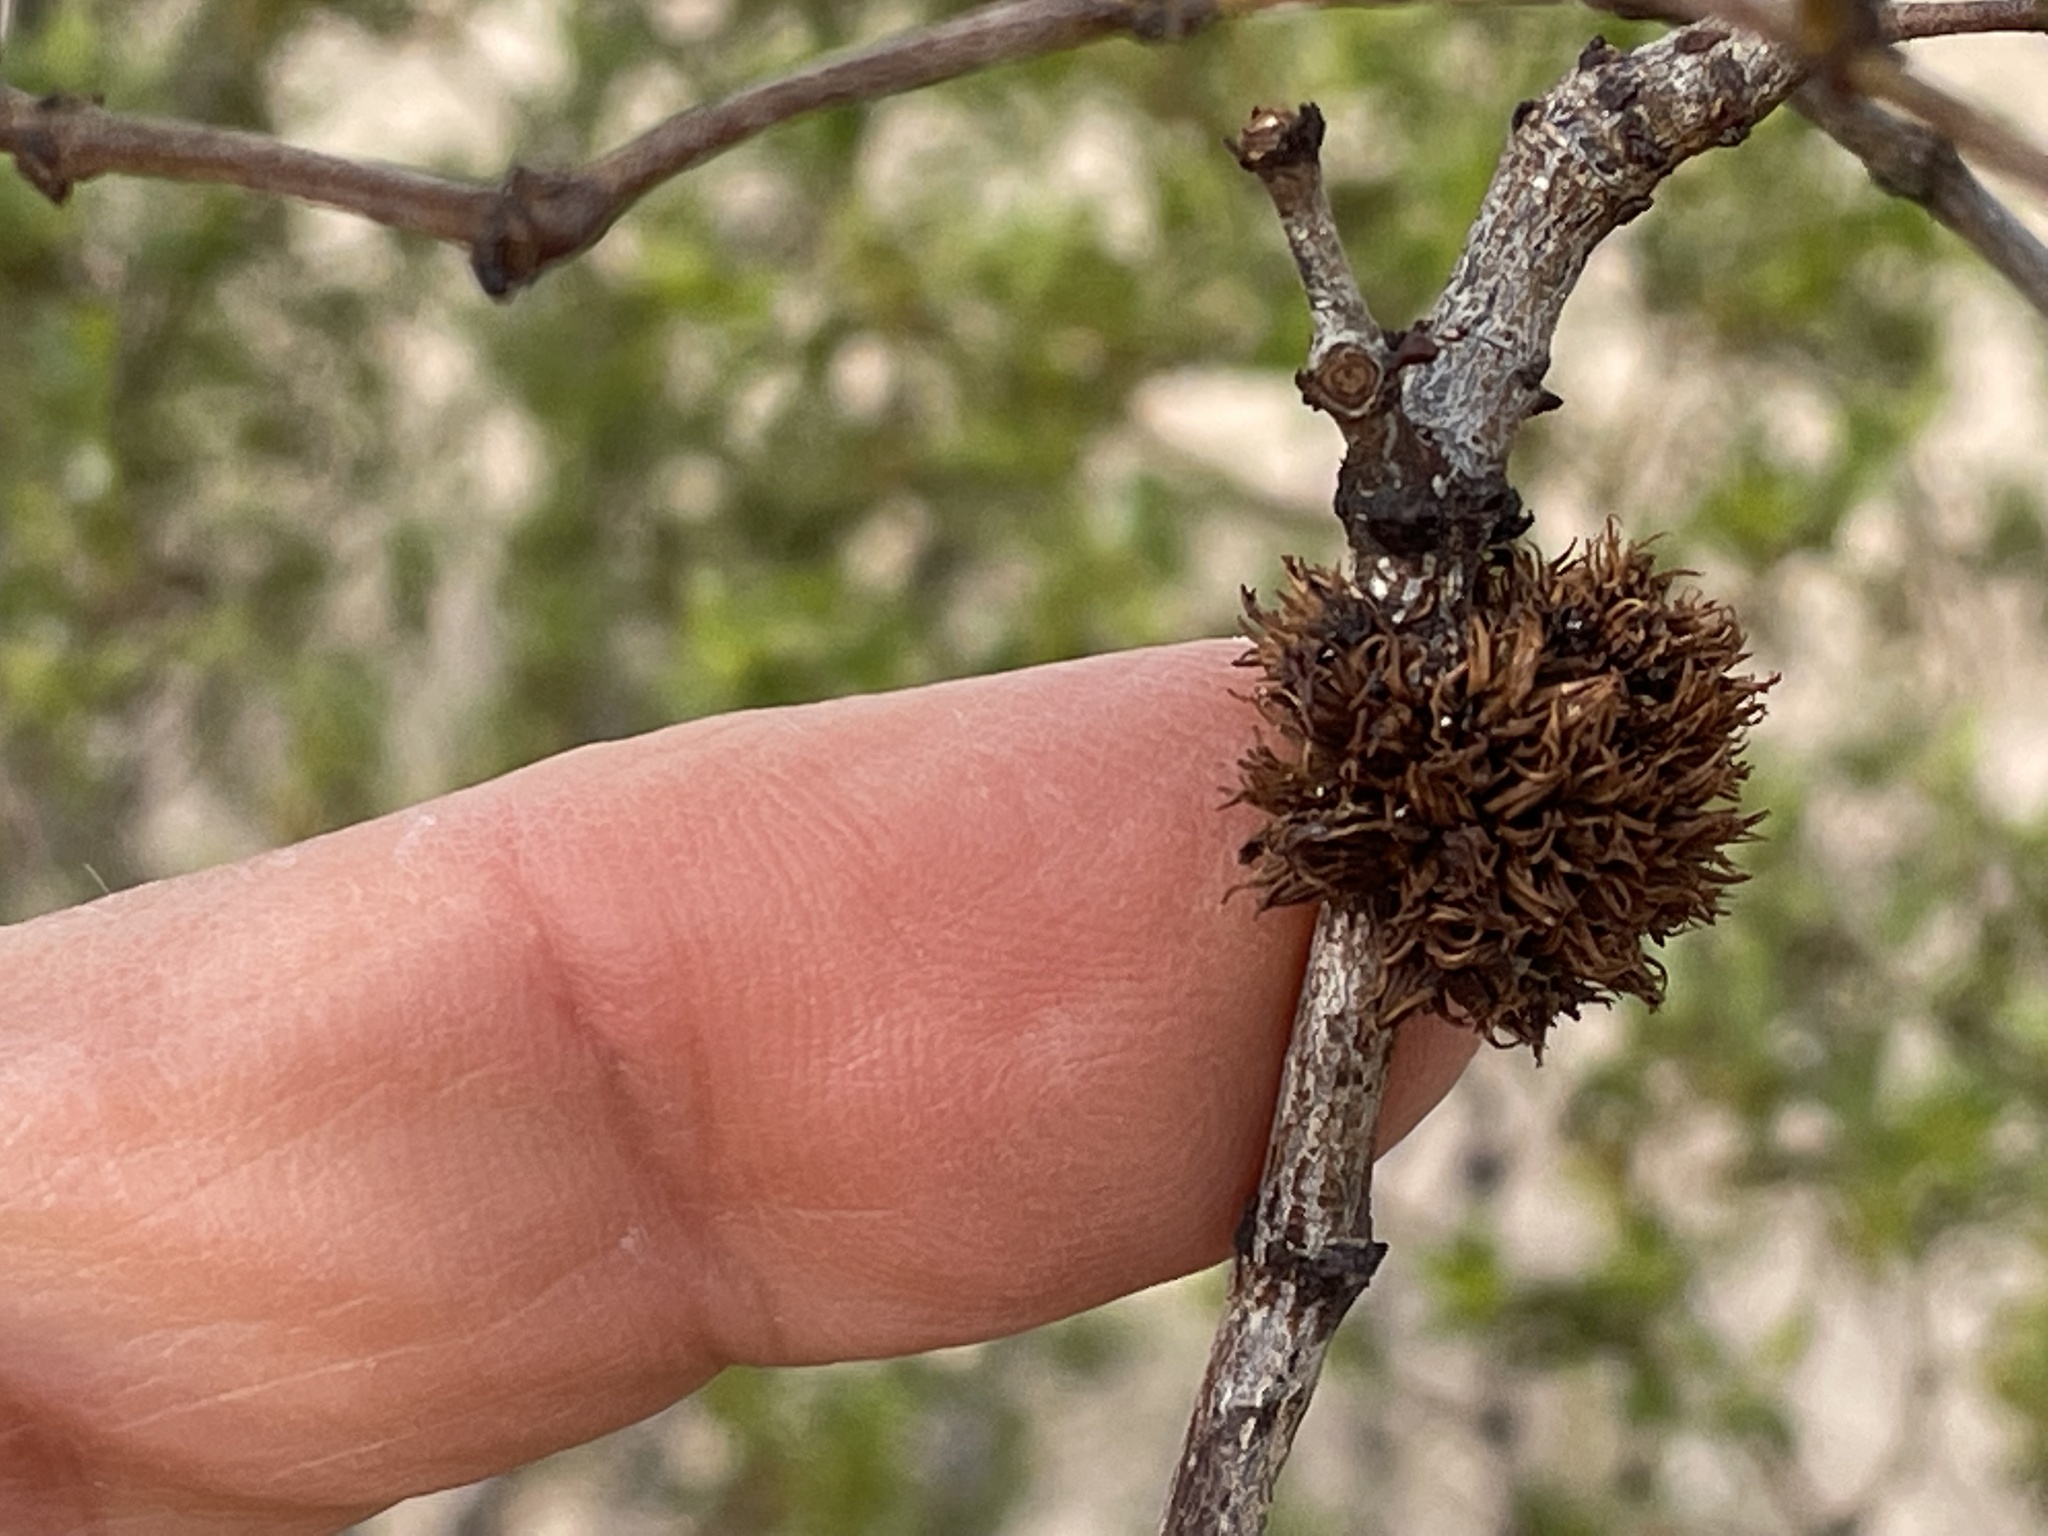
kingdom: Animalia
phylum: Arthropoda
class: Insecta
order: Diptera
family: Cecidomyiidae
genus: Asphondylia
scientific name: Asphondylia auripila
